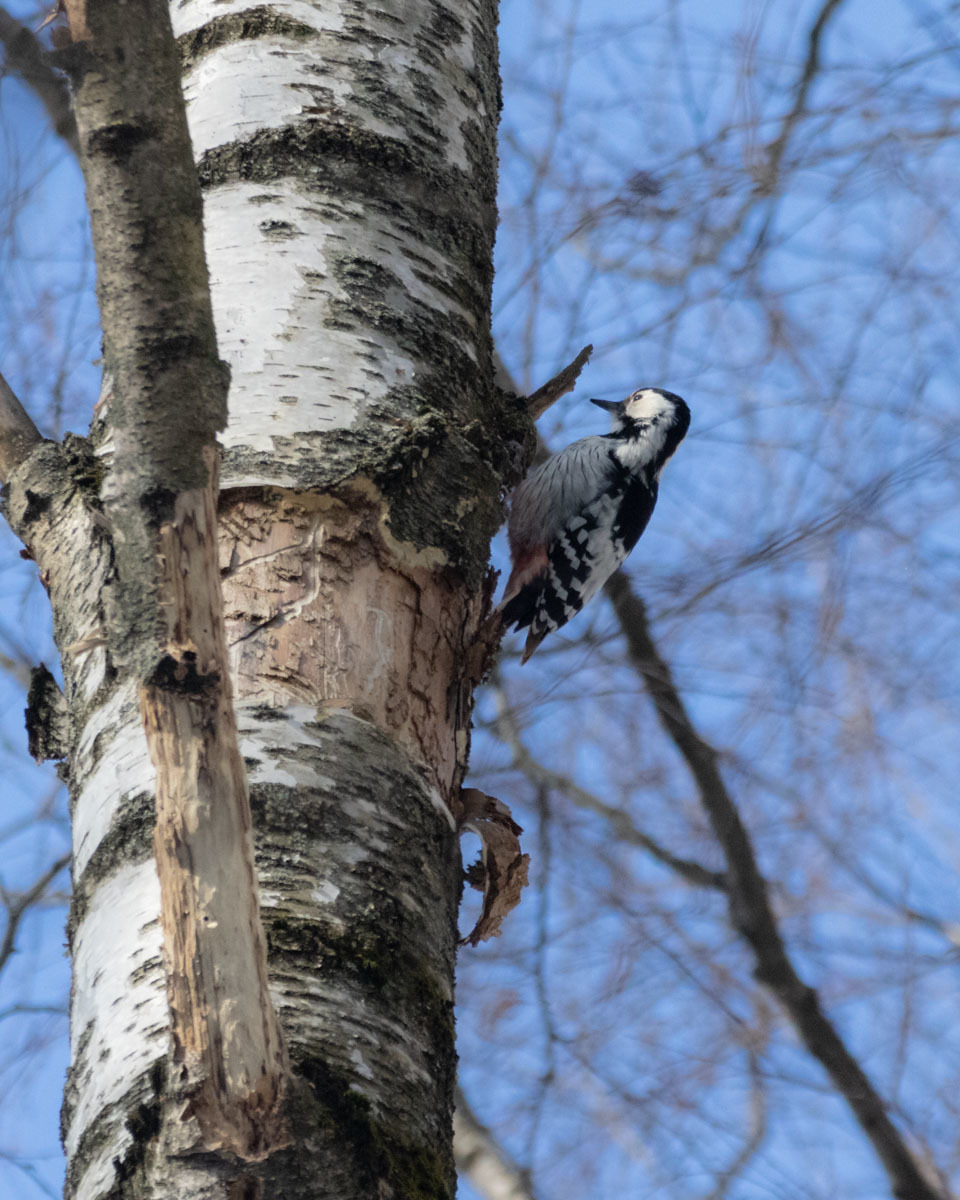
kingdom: Animalia
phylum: Chordata
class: Aves
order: Piciformes
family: Picidae
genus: Dendrocopos
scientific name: Dendrocopos leucotos
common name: White-backed woodpecker
